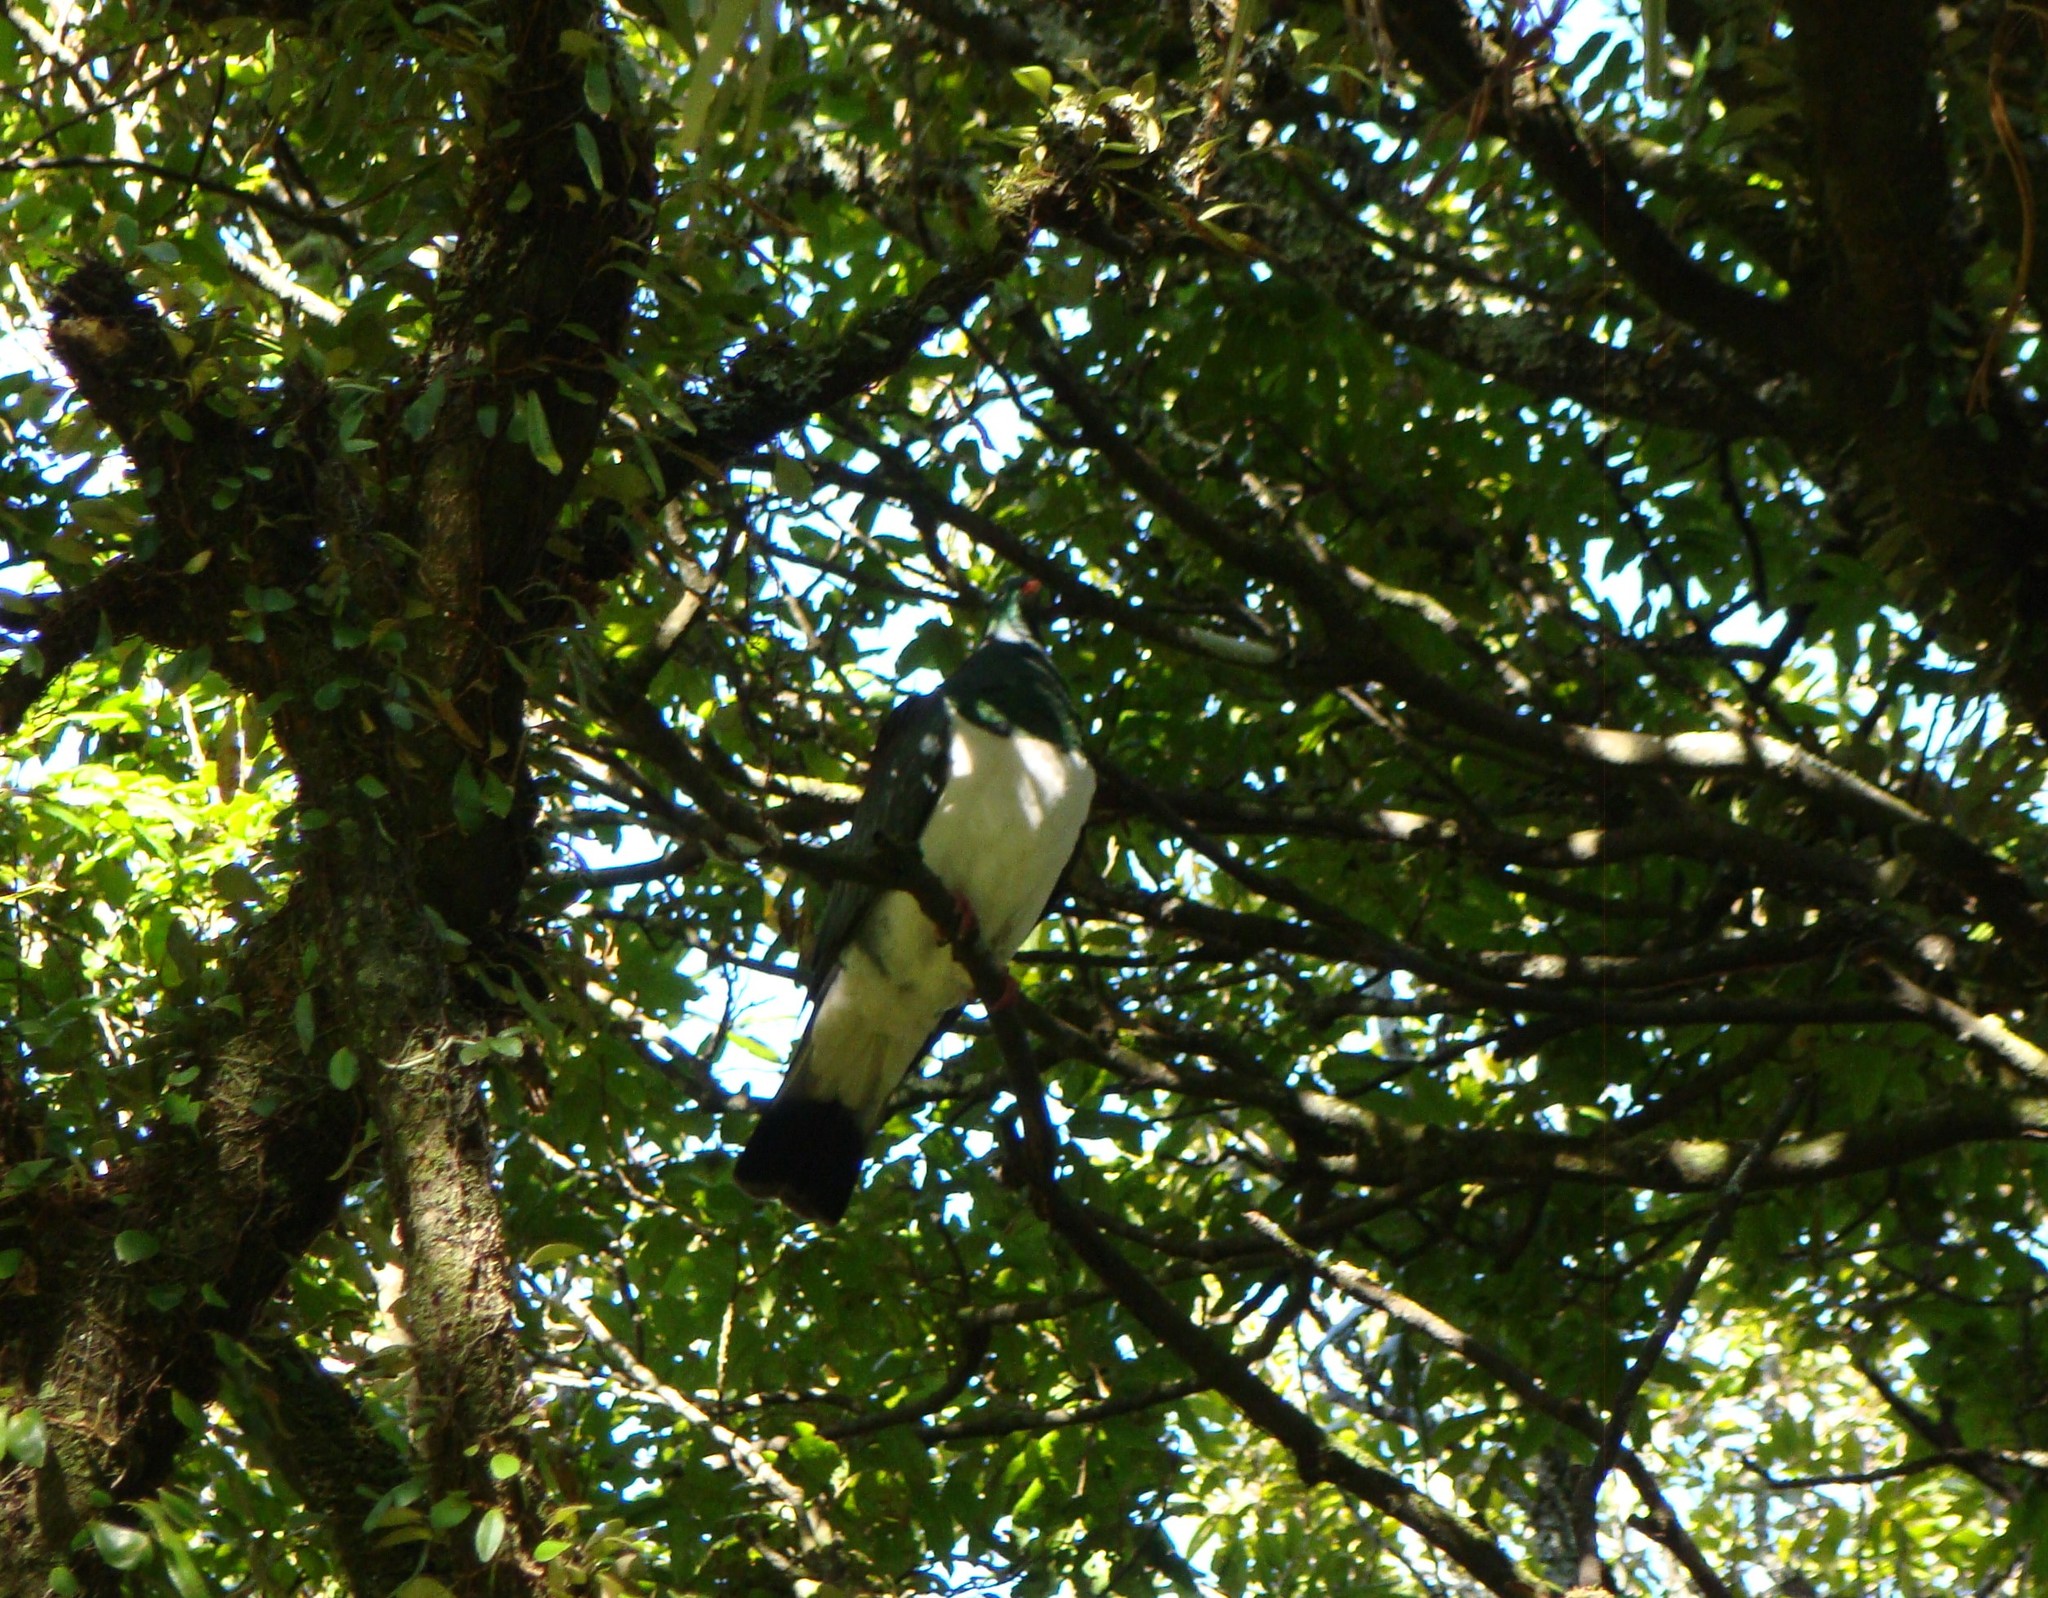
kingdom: Animalia
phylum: Chordata
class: Aves
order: Columbiformes
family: Columbidae
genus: Hemiphaga
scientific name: Hemiphaga novaeseelandiae
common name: New zealand pigeon
